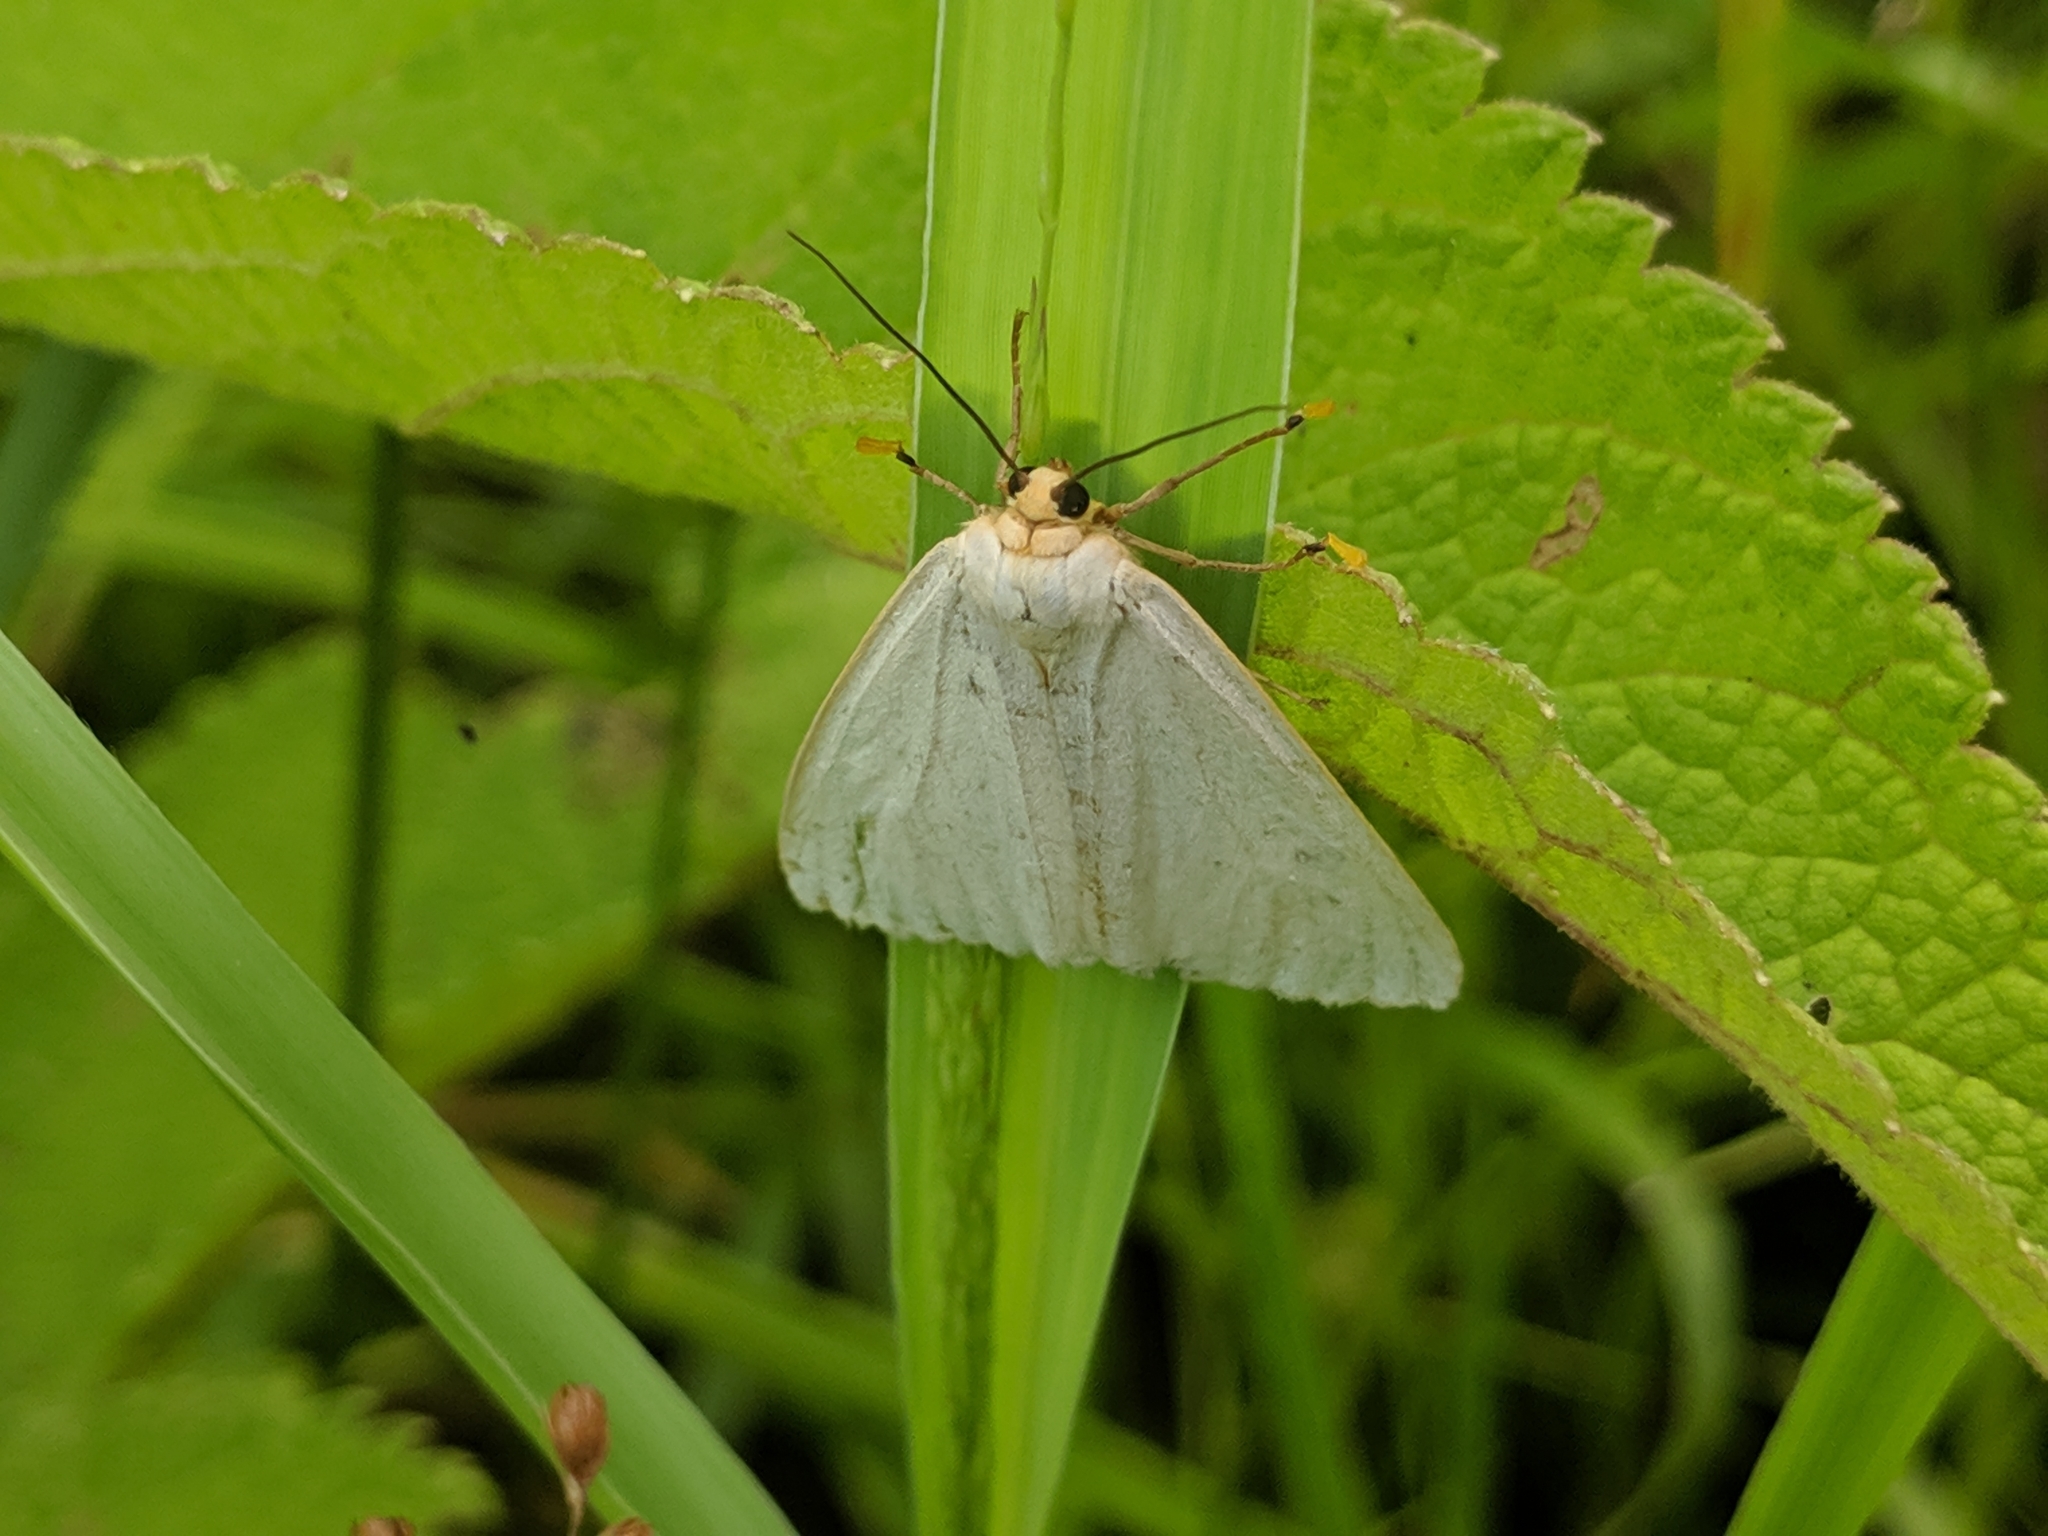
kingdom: Animalia
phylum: Arthropoda
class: Insecta
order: Lepidoptera
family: Erebidae
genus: Cycnia
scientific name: Cycnia tenera
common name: Delicate cycnia moth
